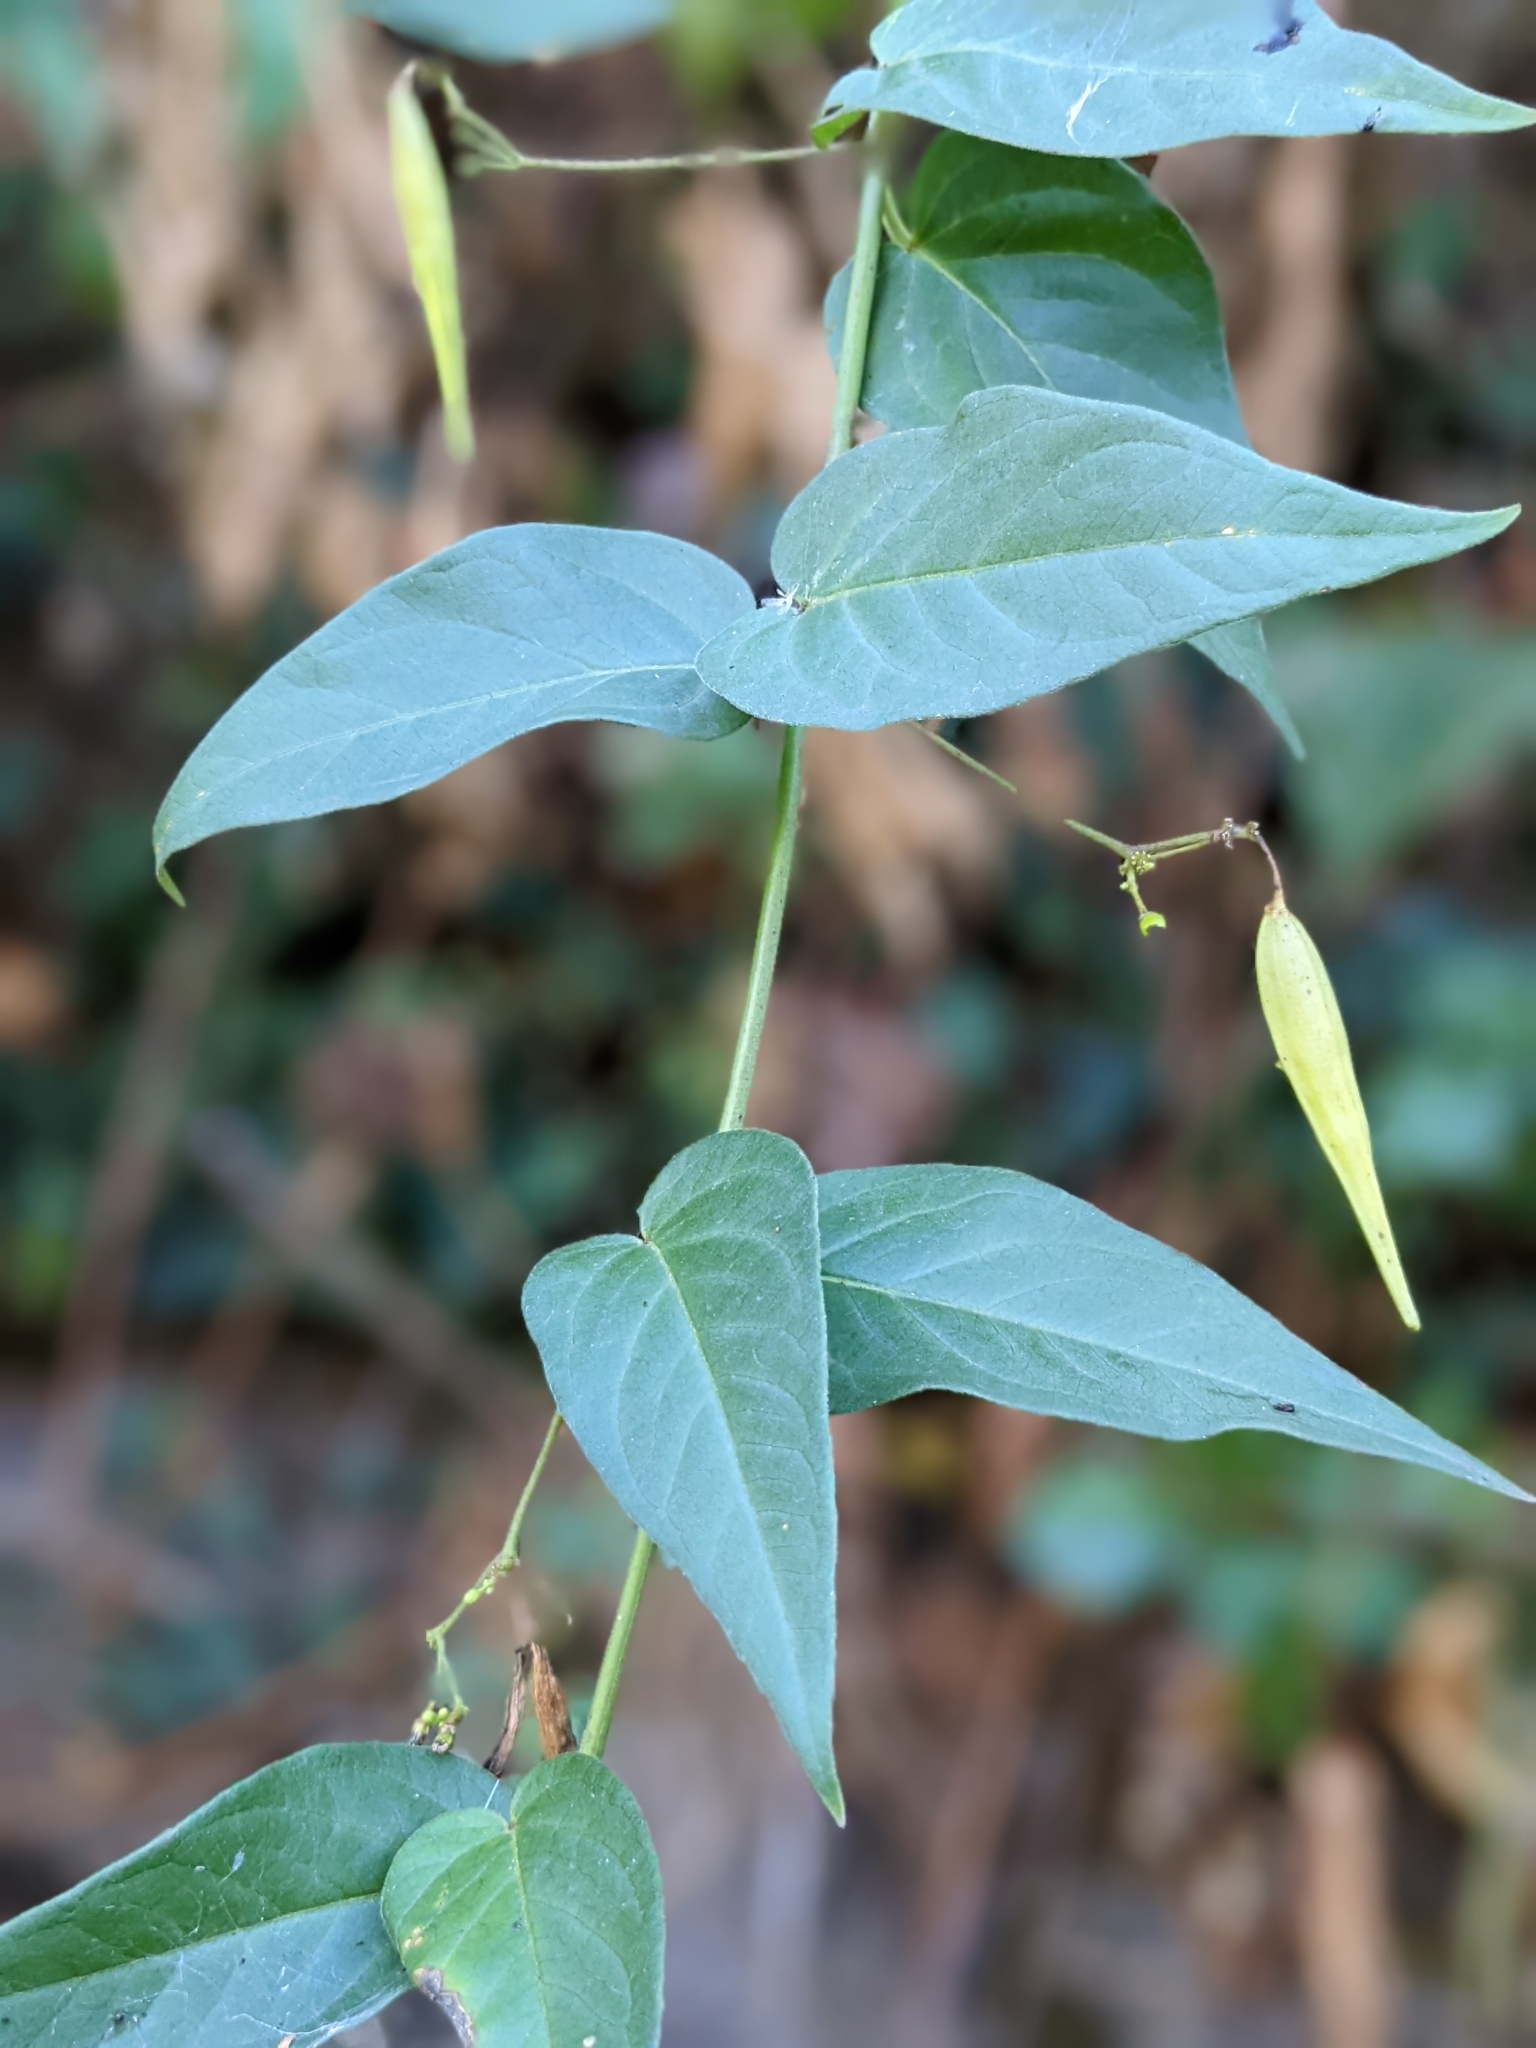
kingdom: Plantae
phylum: Tracheophyta
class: Magnoliopsida
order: Gentianales
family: Apocynaceae
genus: Vincetoxicum
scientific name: Vincetoxicum hirundinaria
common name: White swallowwort
